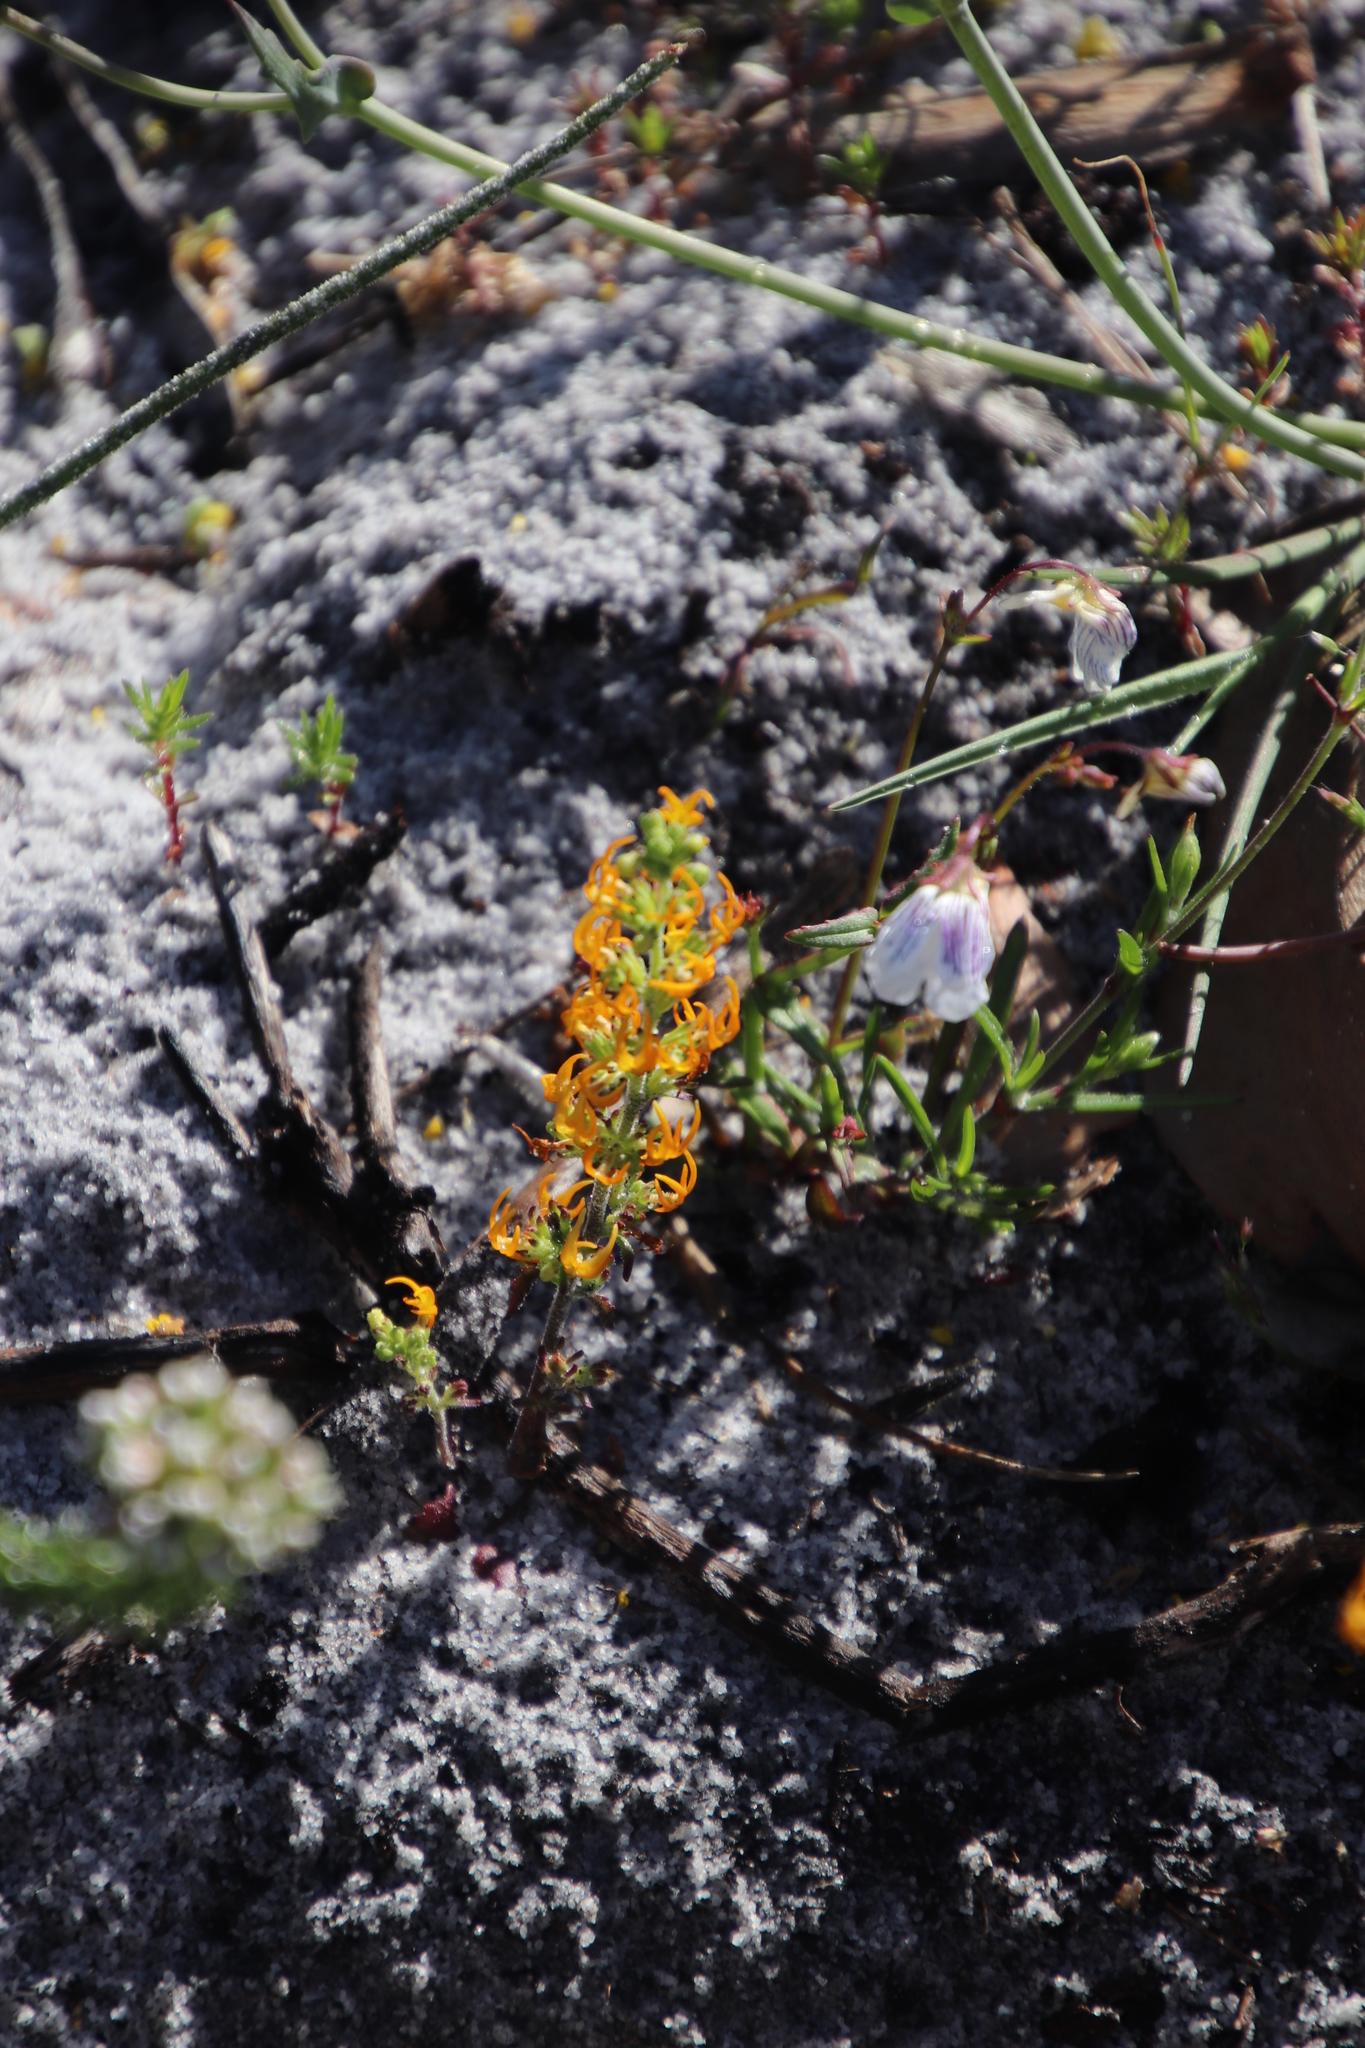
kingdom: Plantae
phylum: Tracheophyta
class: Magnoliopsida
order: Lamiales
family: Scrophulariaceae
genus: Manulea
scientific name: Manulea cheiranthus
